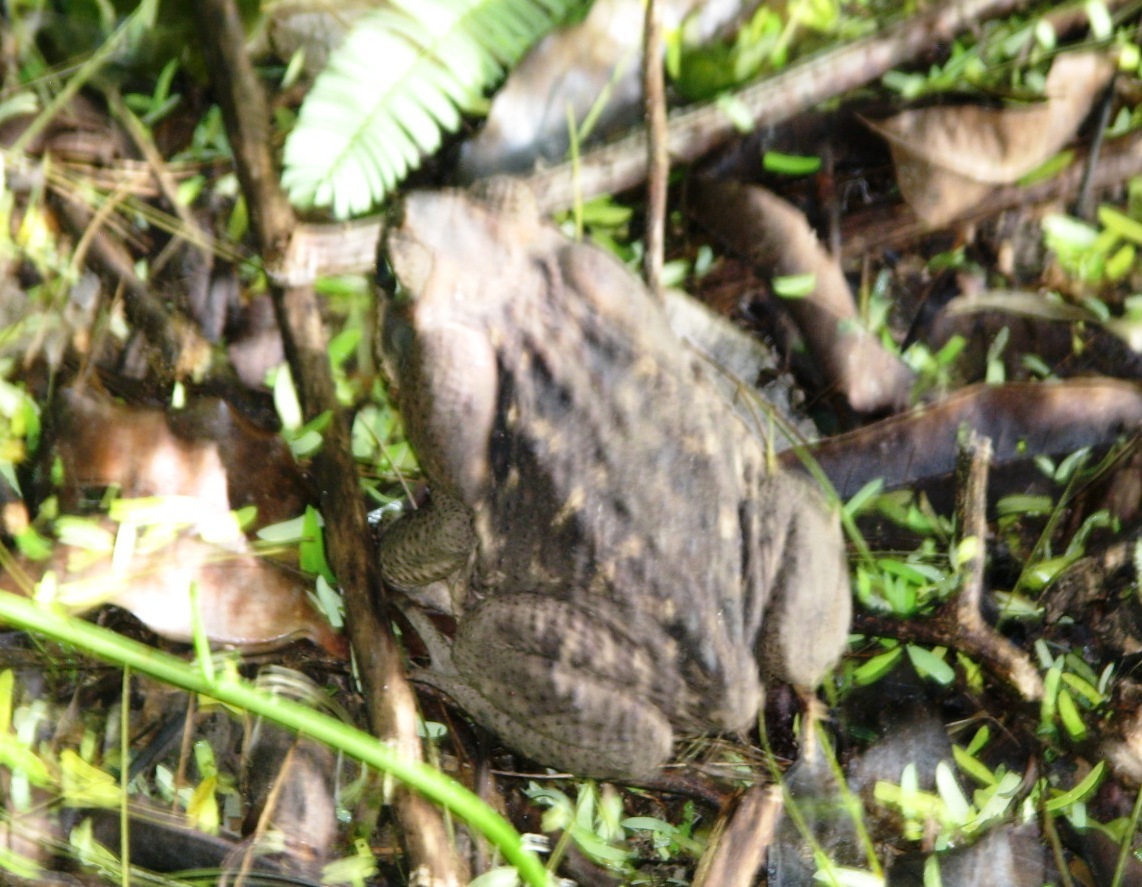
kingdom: Animalia
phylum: Chordata
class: Amphibia
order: Anura
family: Bufonidae
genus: Rhinella
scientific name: Rhinella horribilis
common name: Mesoamerican cane toad
